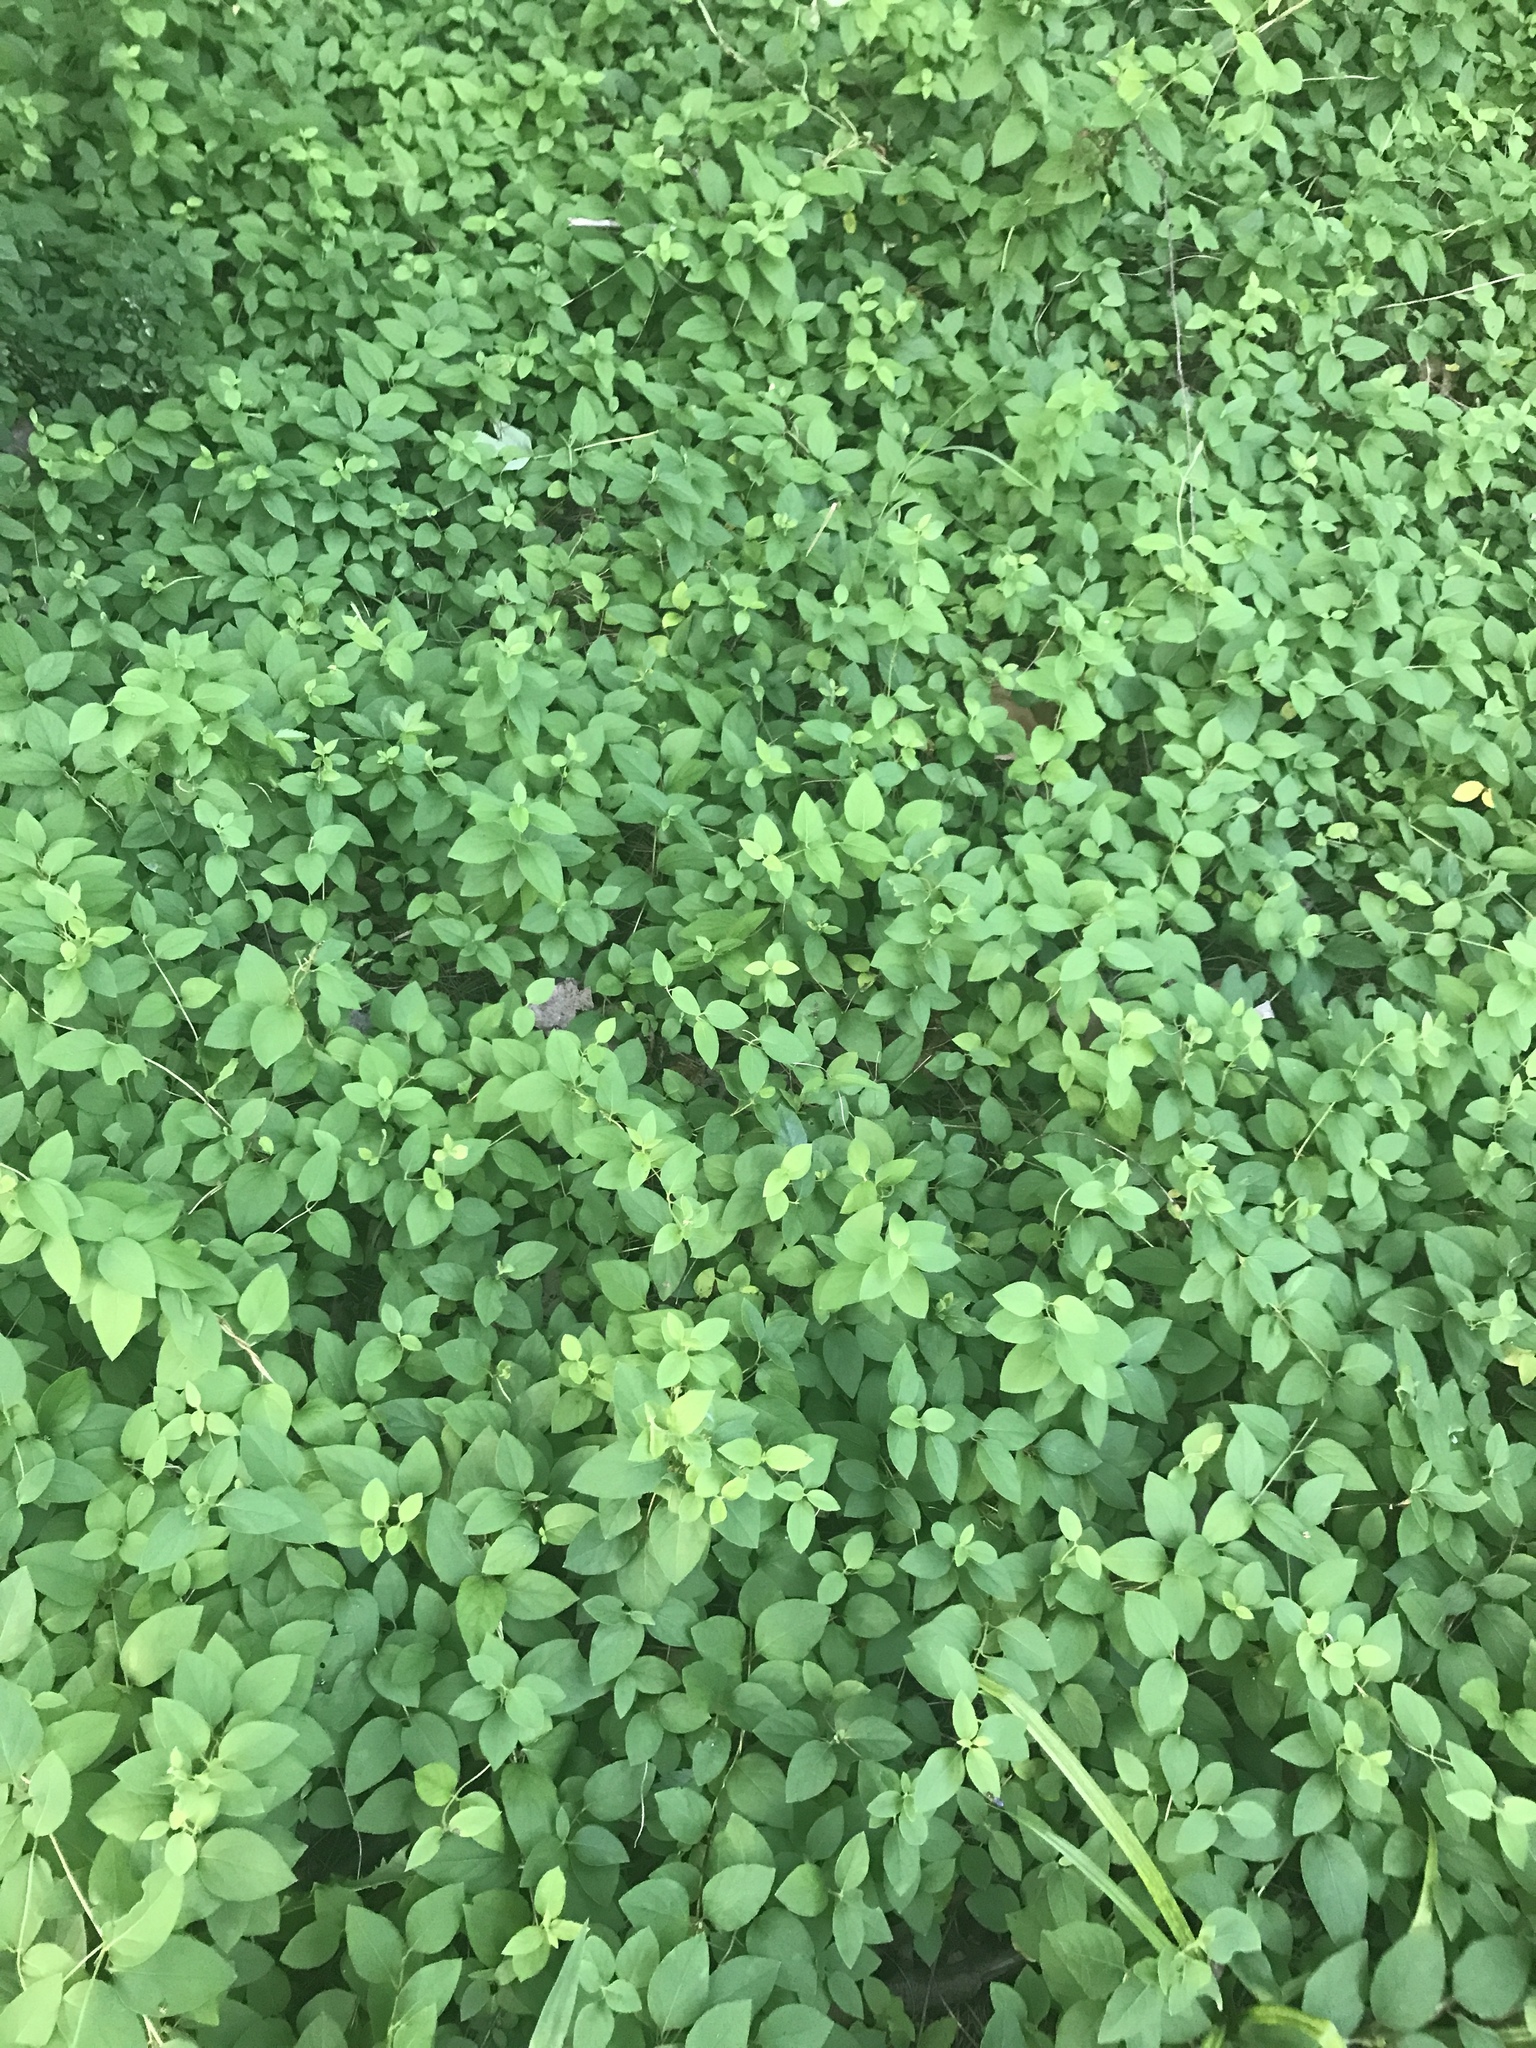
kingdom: Plantae
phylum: Tracheophyta
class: Magnoliopsida
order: Dipsacales
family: Caprifoliaceae
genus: Lonicera
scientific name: Lonicera japonica
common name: Japanese honeysuckle
